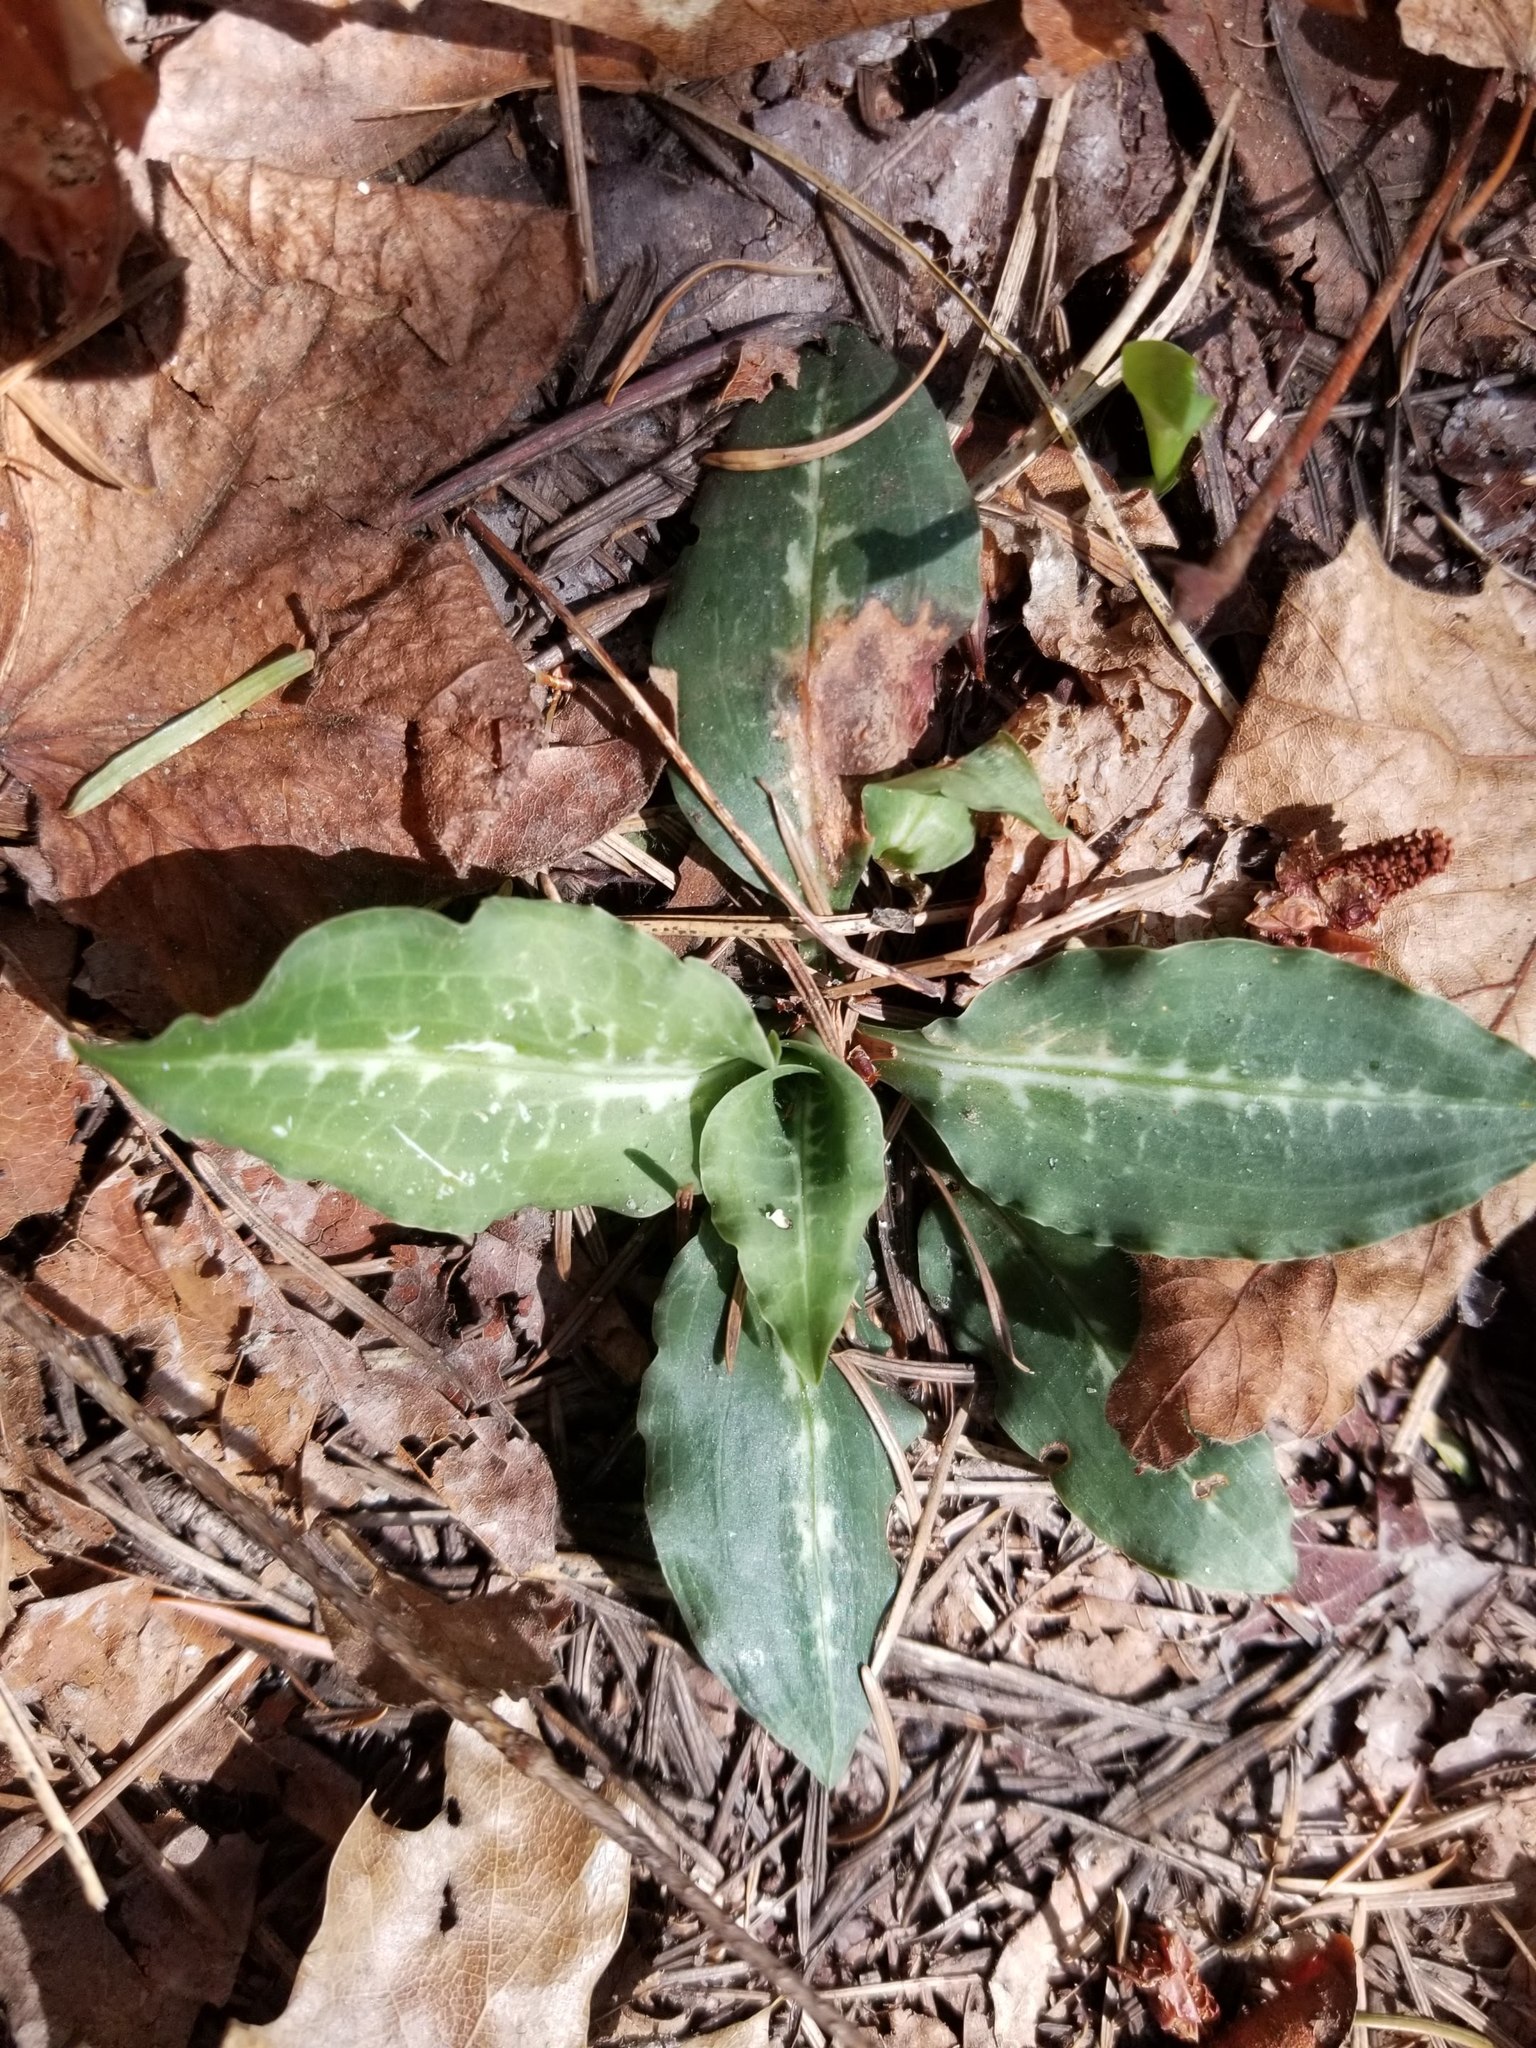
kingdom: Plantae
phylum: Tracheophyta
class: Liliopsida
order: Asparagales
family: Orchidaceae
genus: Goodyera
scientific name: Goodyera oblongifolia
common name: Giant rattlesnake-plantain
